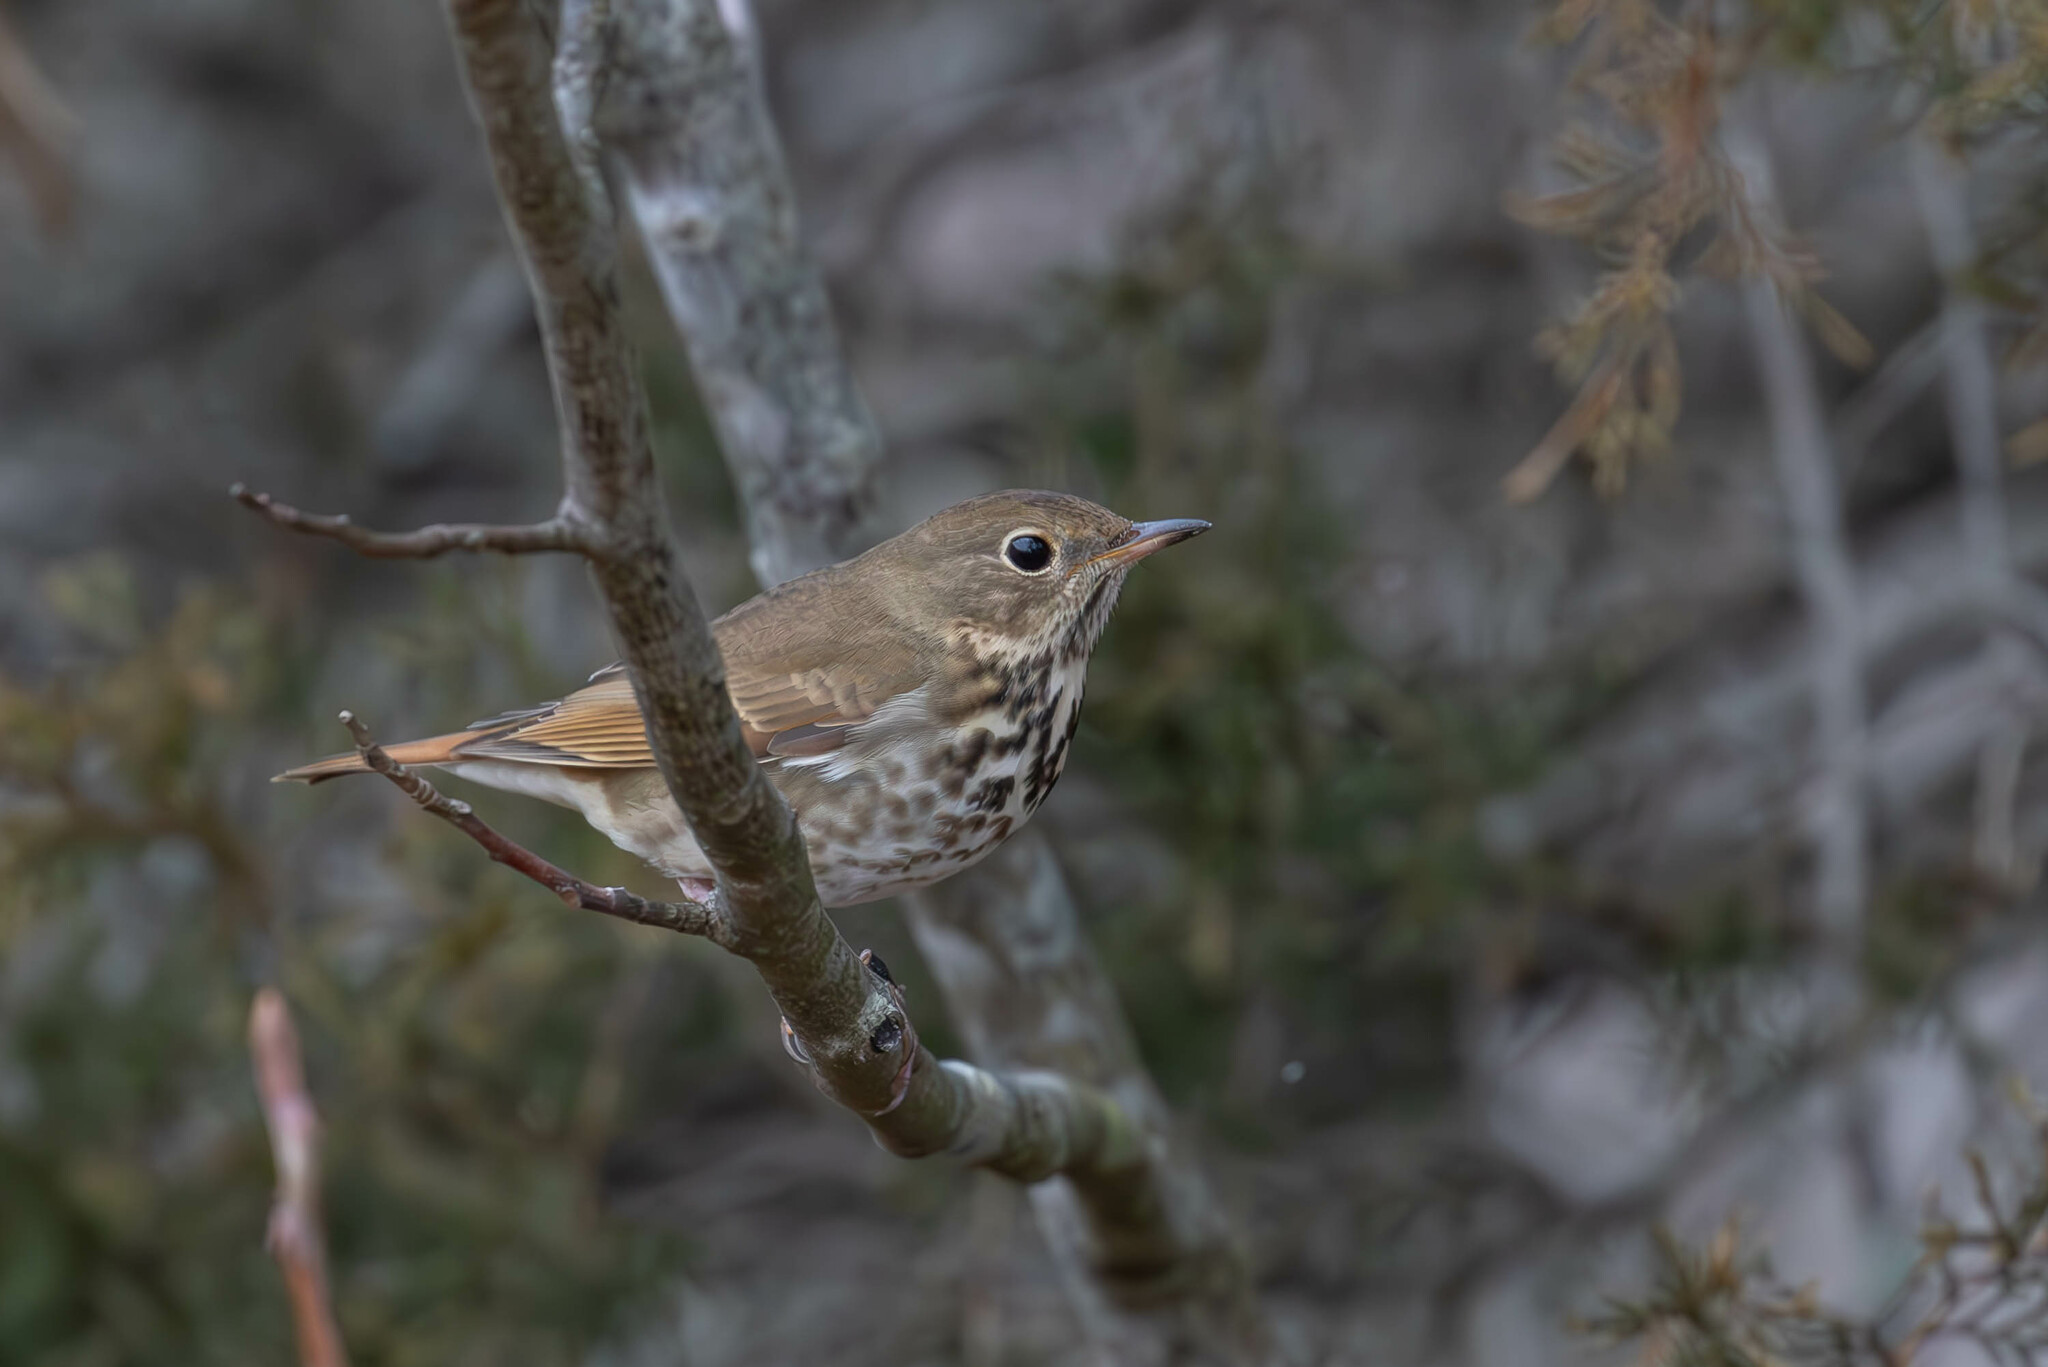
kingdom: Animalia
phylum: Chordata
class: Aves
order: Passeriformes
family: Turdidae
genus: Catharus
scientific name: Catharus guttatus
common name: Hermit thrush
